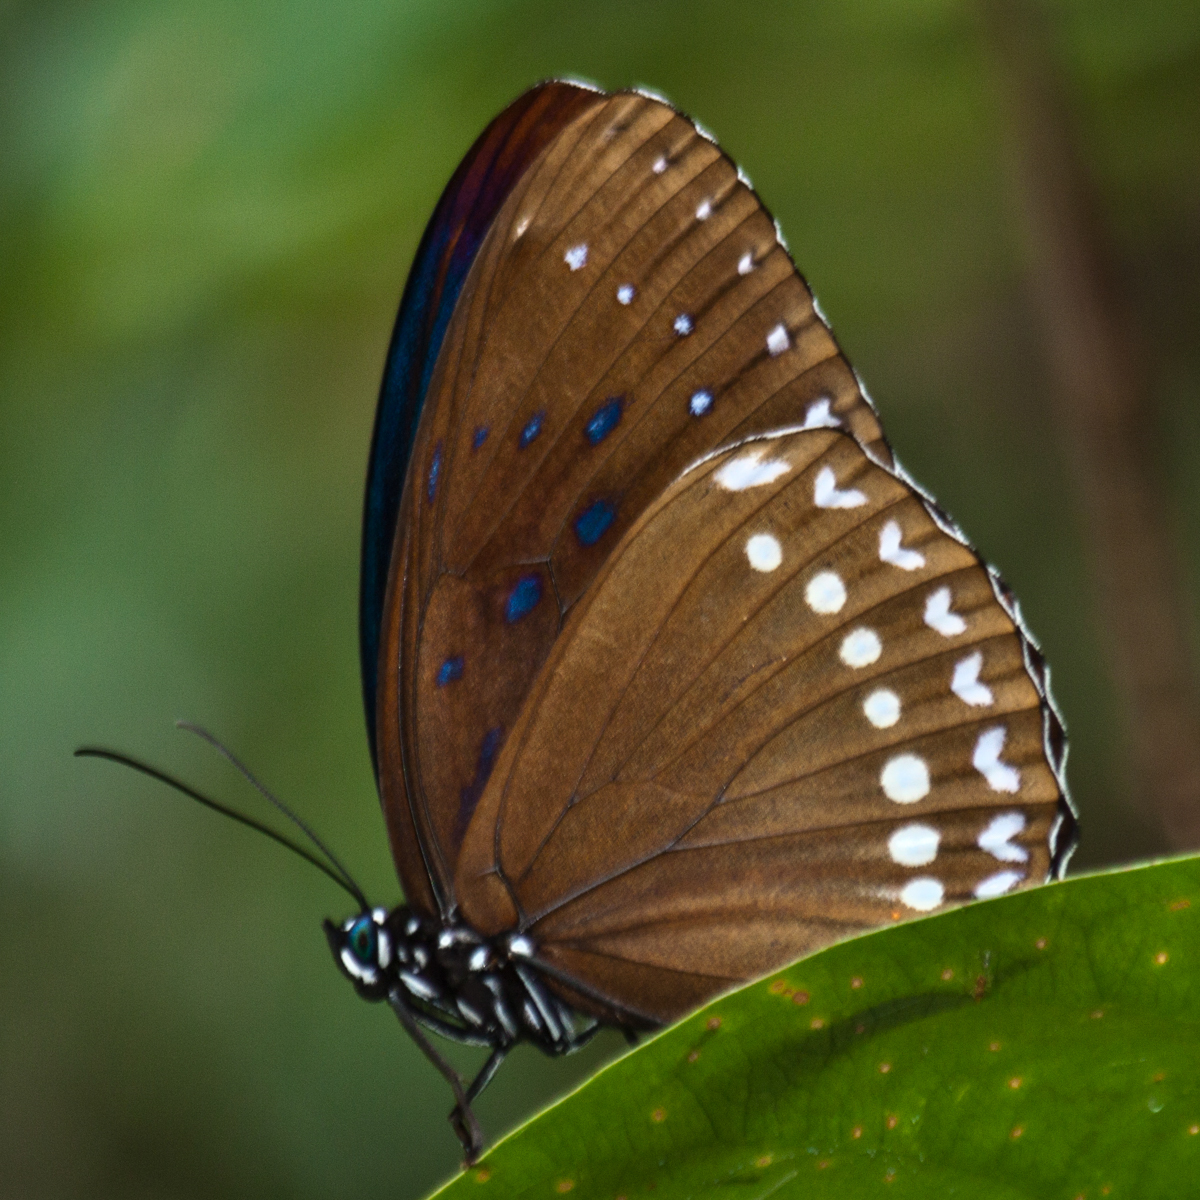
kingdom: Animalia
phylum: Arthropoda
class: Insecta
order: Lepidoptera
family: Nymphalidae
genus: Penthema
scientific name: Penthema darlisa
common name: Three-coloured kaiser
